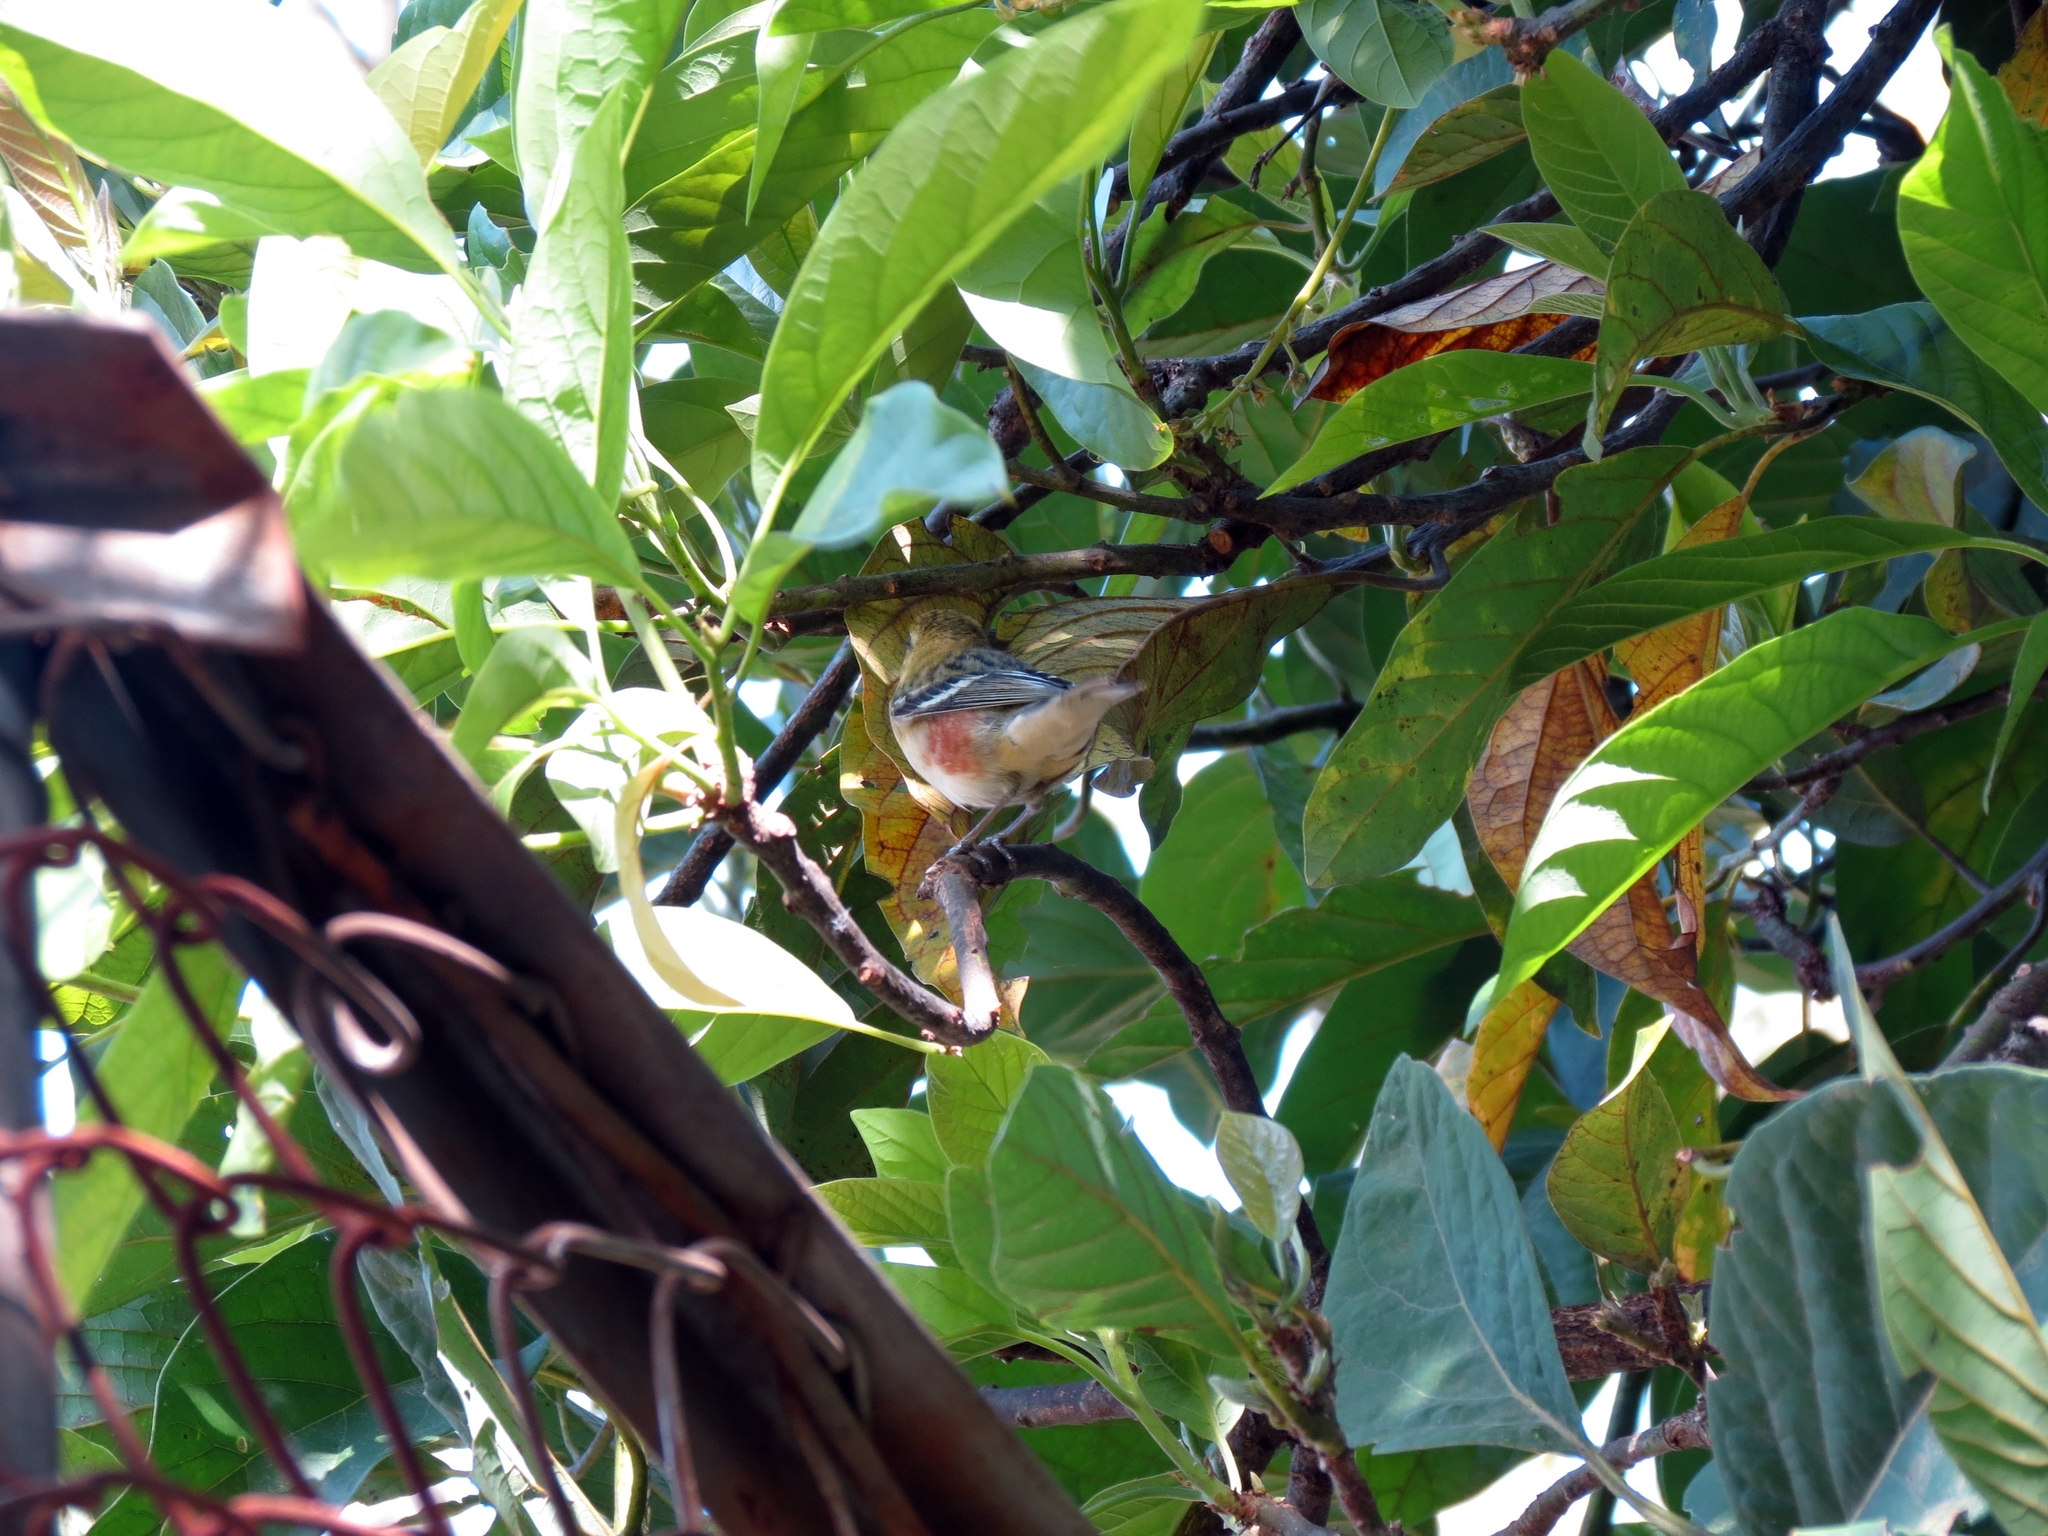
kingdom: Animalia
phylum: Chordata
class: Aves
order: Passeriformes
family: Parulidae
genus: Setophaga
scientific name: Setophaga castanea
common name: Bay-breasted warbler
